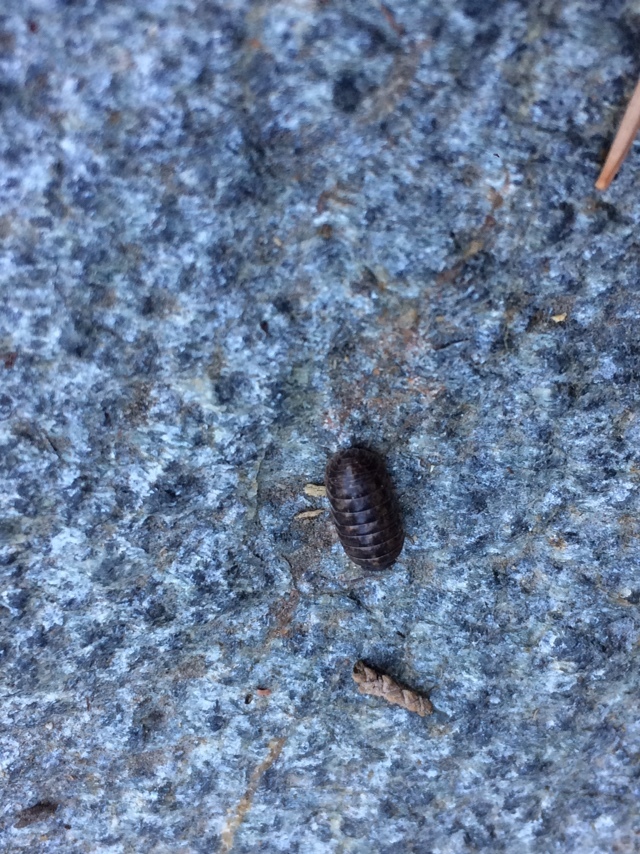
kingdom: Animalia
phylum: Arthropoda
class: Malacostraca
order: Isopoda
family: Armadillidiidae
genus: Armadillidium
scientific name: Armadillidium vulgare
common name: Common pill woodlouse
